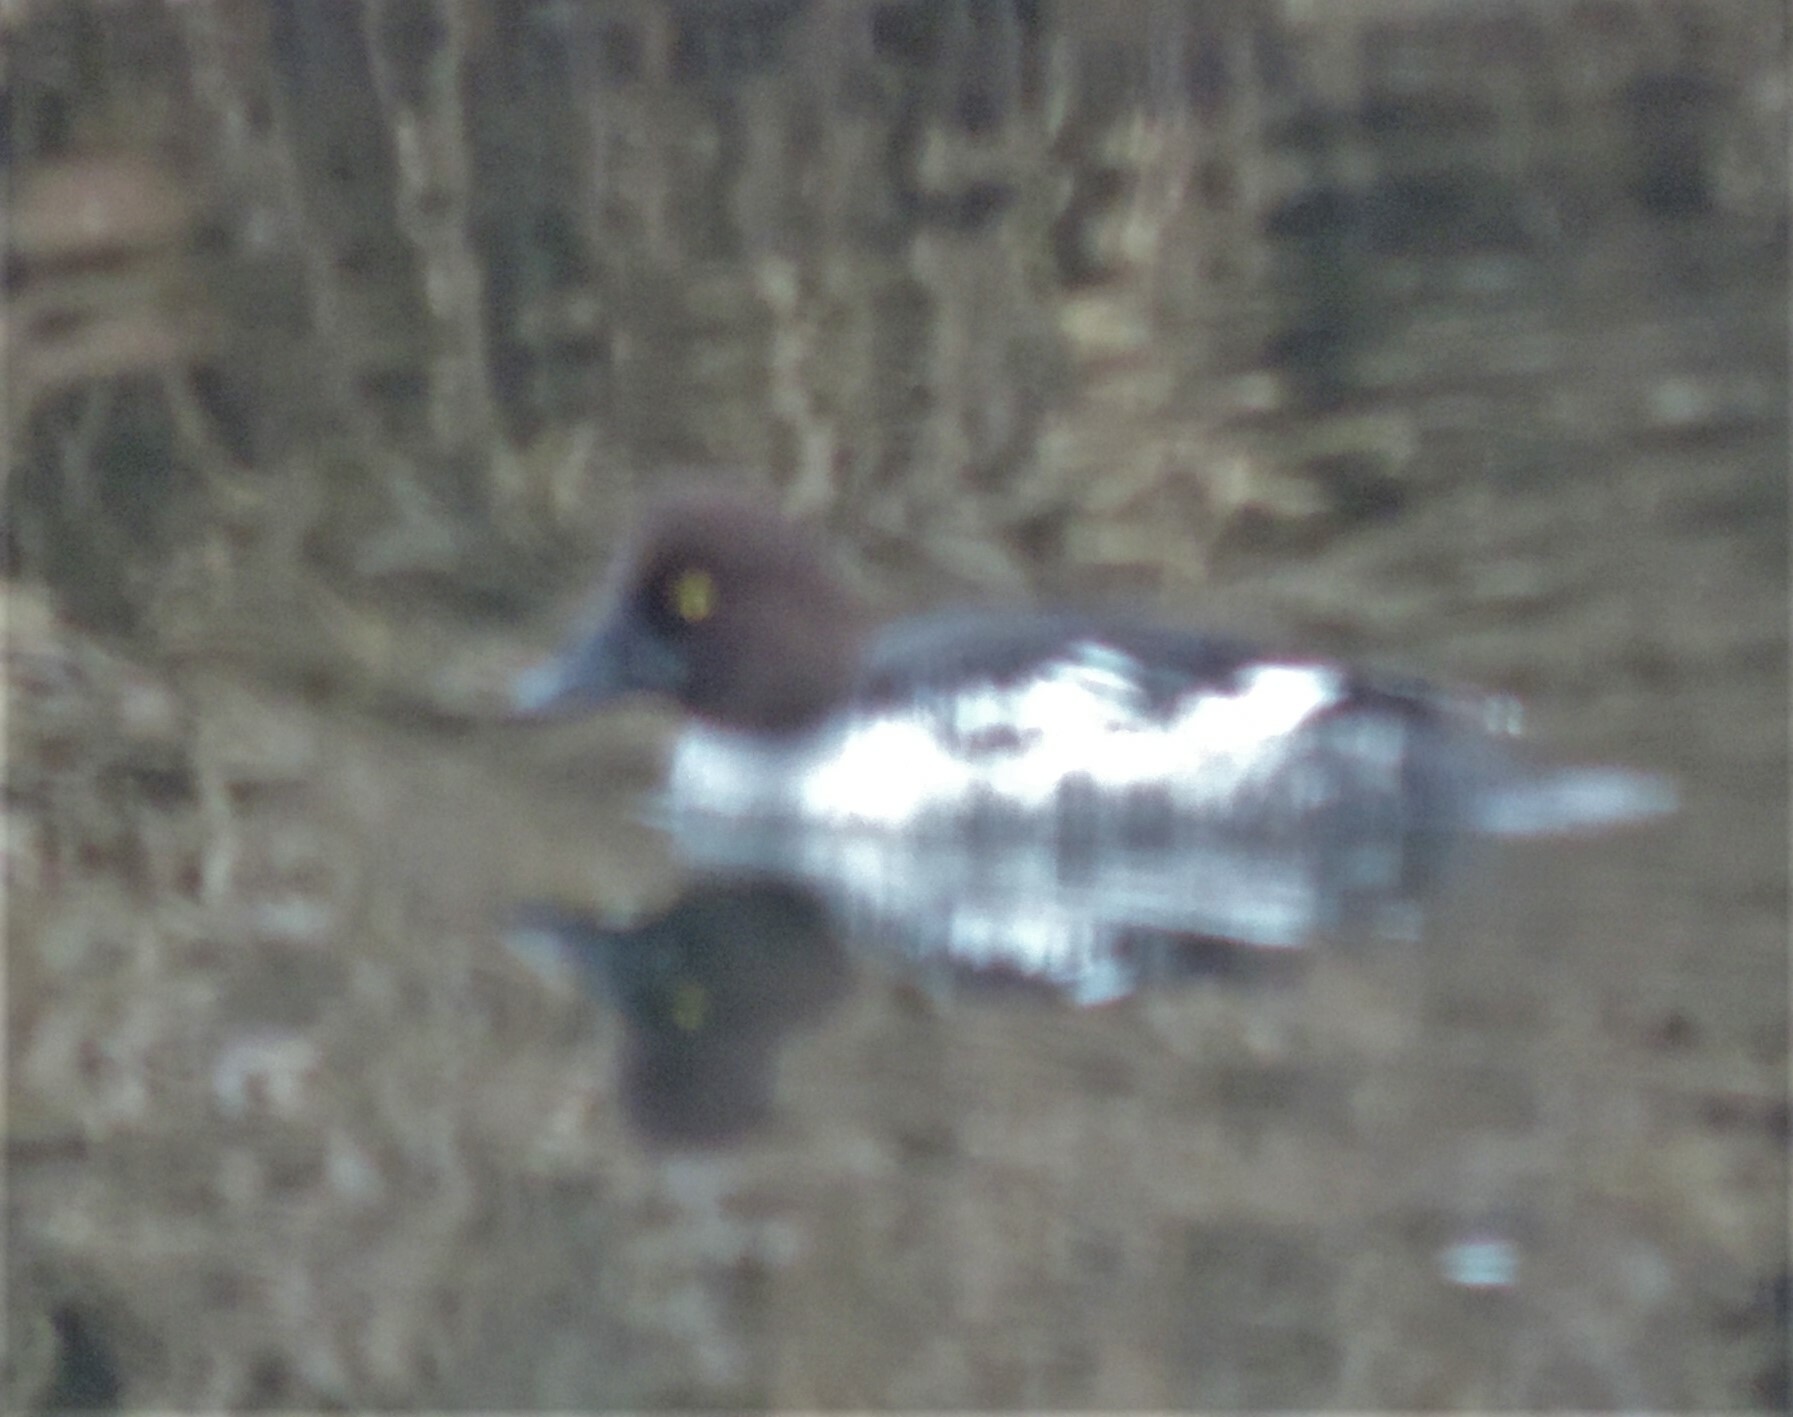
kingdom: Animalia
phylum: Chordata
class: Aves
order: Anseriformes
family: Anatidae
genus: Bucephala
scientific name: Bucephala clangula
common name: Common goldeneye
